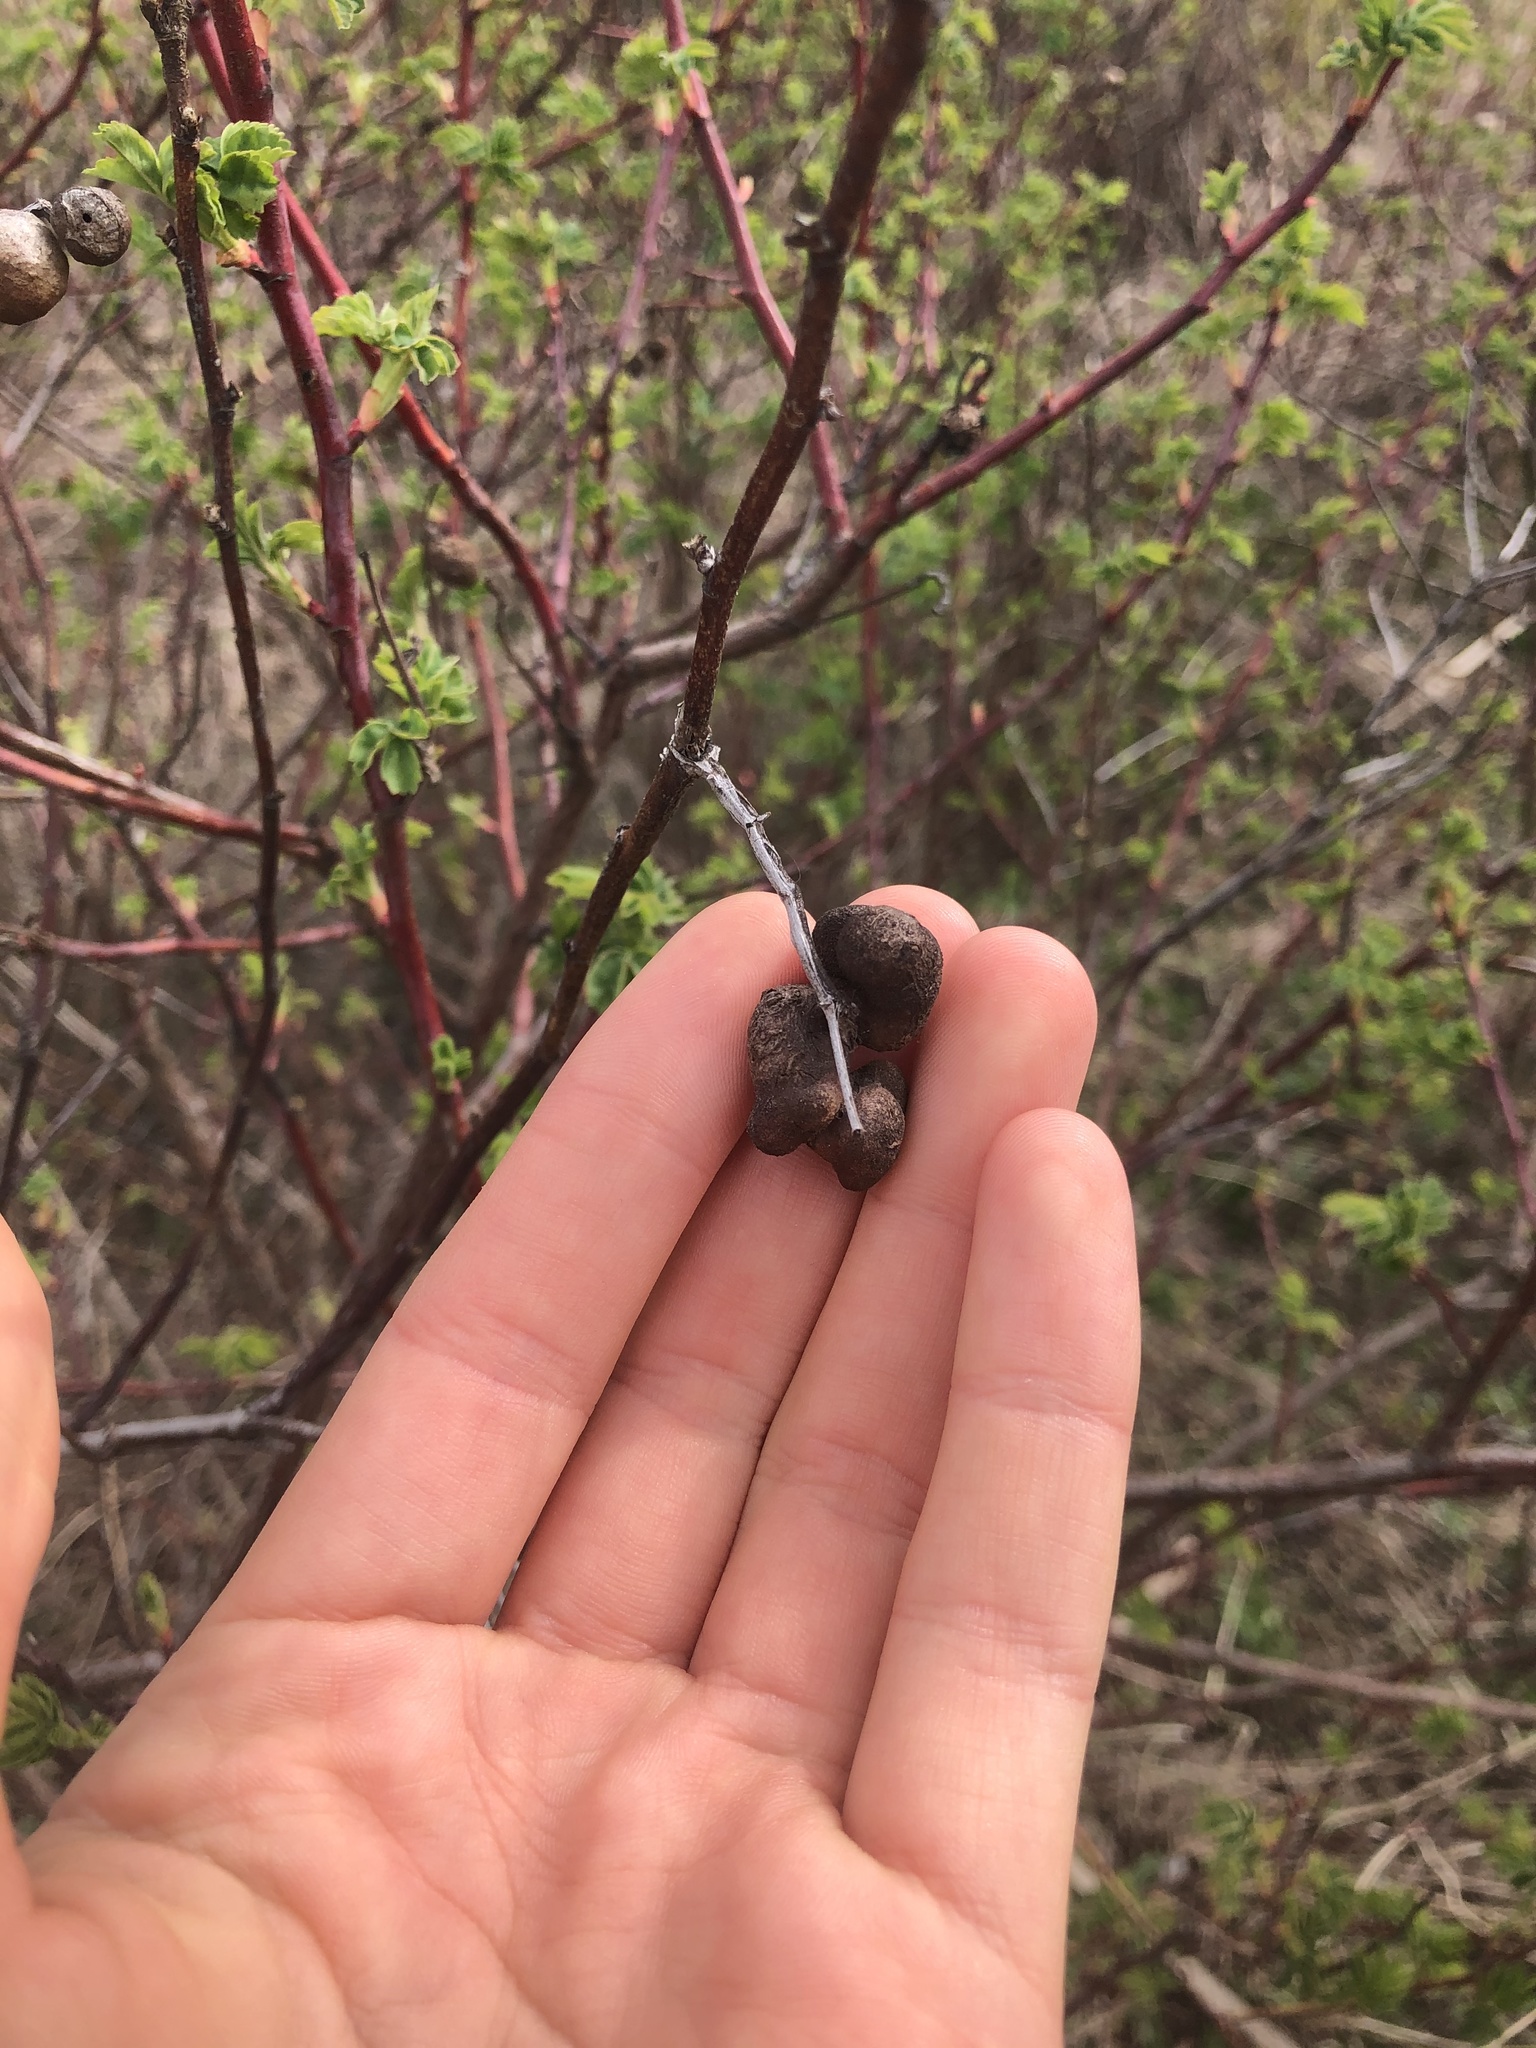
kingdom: Animalia
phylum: Arthropoda
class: Insecta
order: Hymenoptera
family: Cynipidae
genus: Diplolepis
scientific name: Diplolepis variabilis
